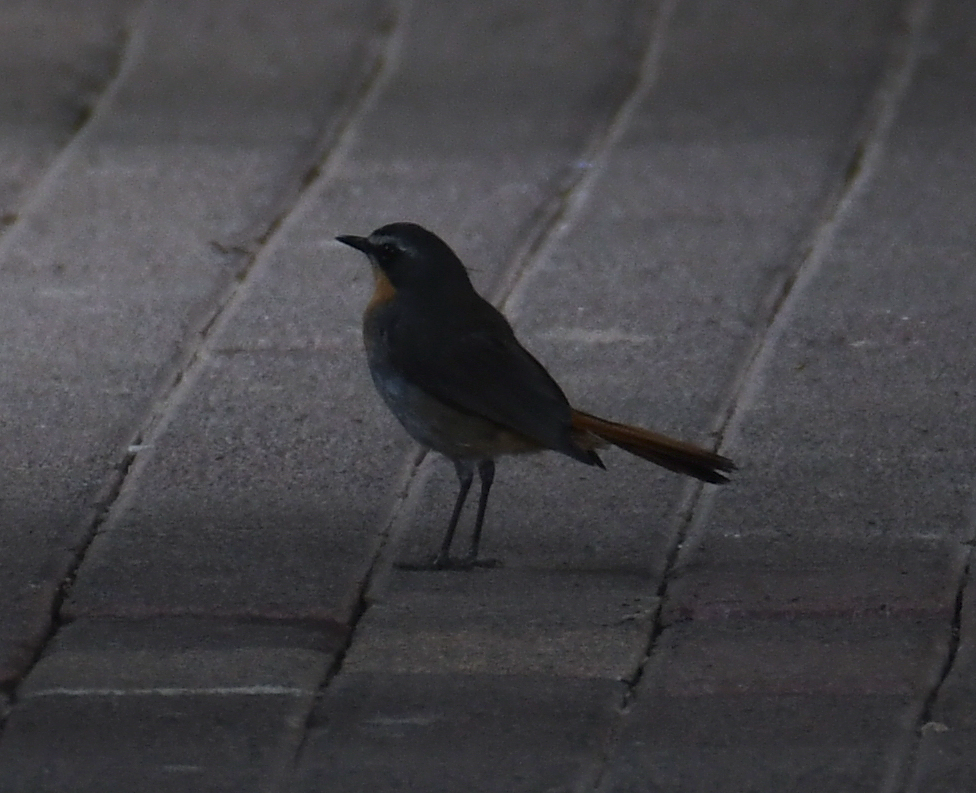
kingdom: Animalia
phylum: Chordata
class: Aves
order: Passeriformes
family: Muscicapidae
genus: Cossypha
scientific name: Cossypha caffra
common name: Cape robin-chat
